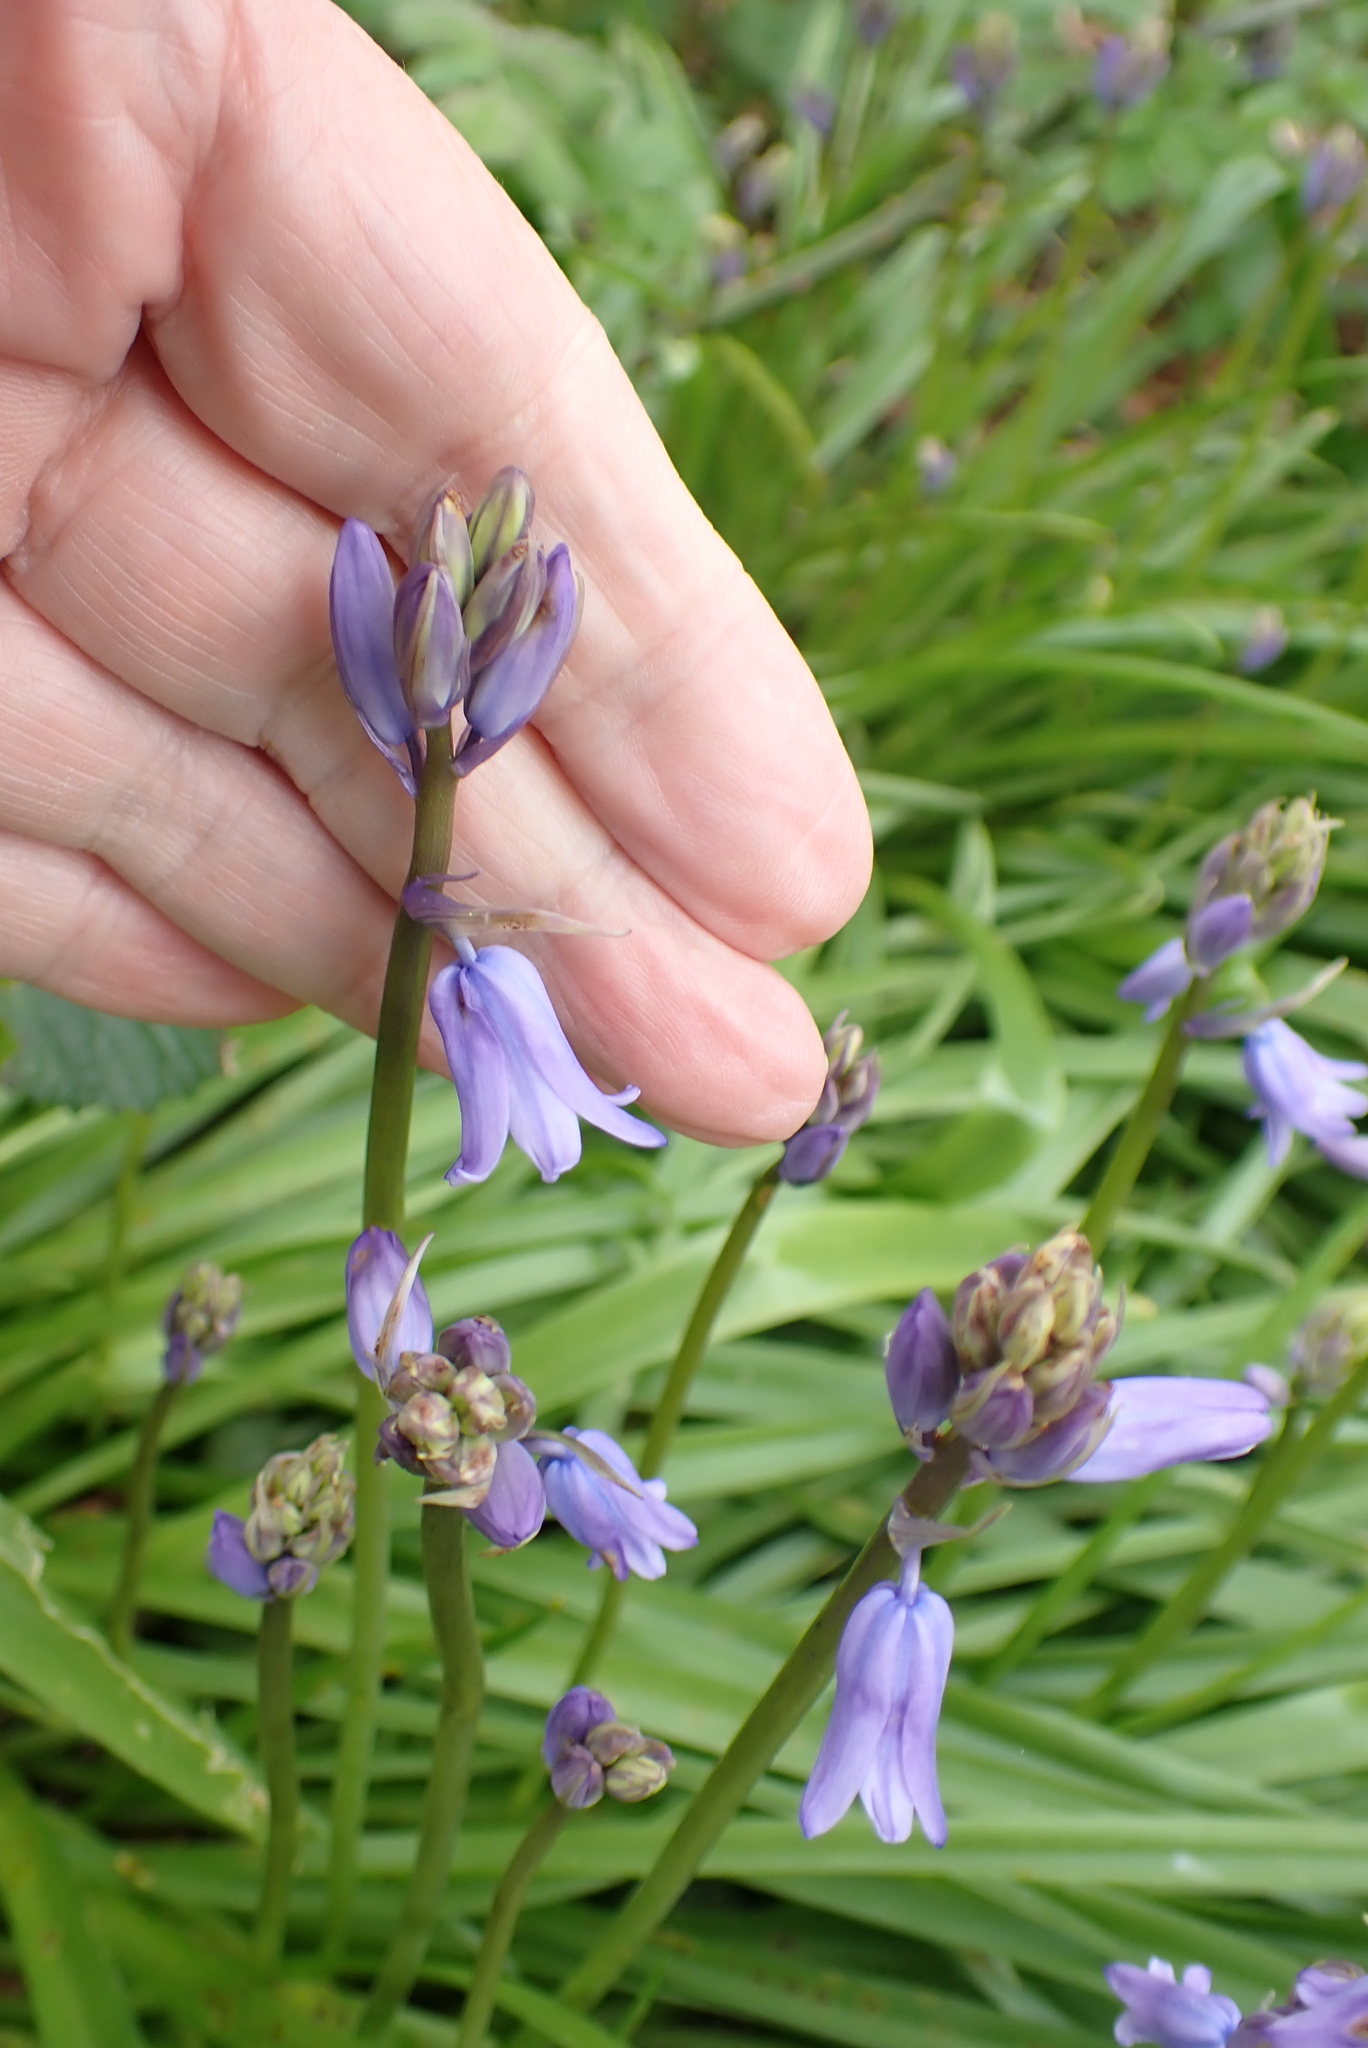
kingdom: Plantae
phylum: Tracheophyta
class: Liliopsida
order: Asparagales
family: Asparagaceae
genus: Hyacinthoides
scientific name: Hyacinthoides massartiana
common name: Hyacinthoides
